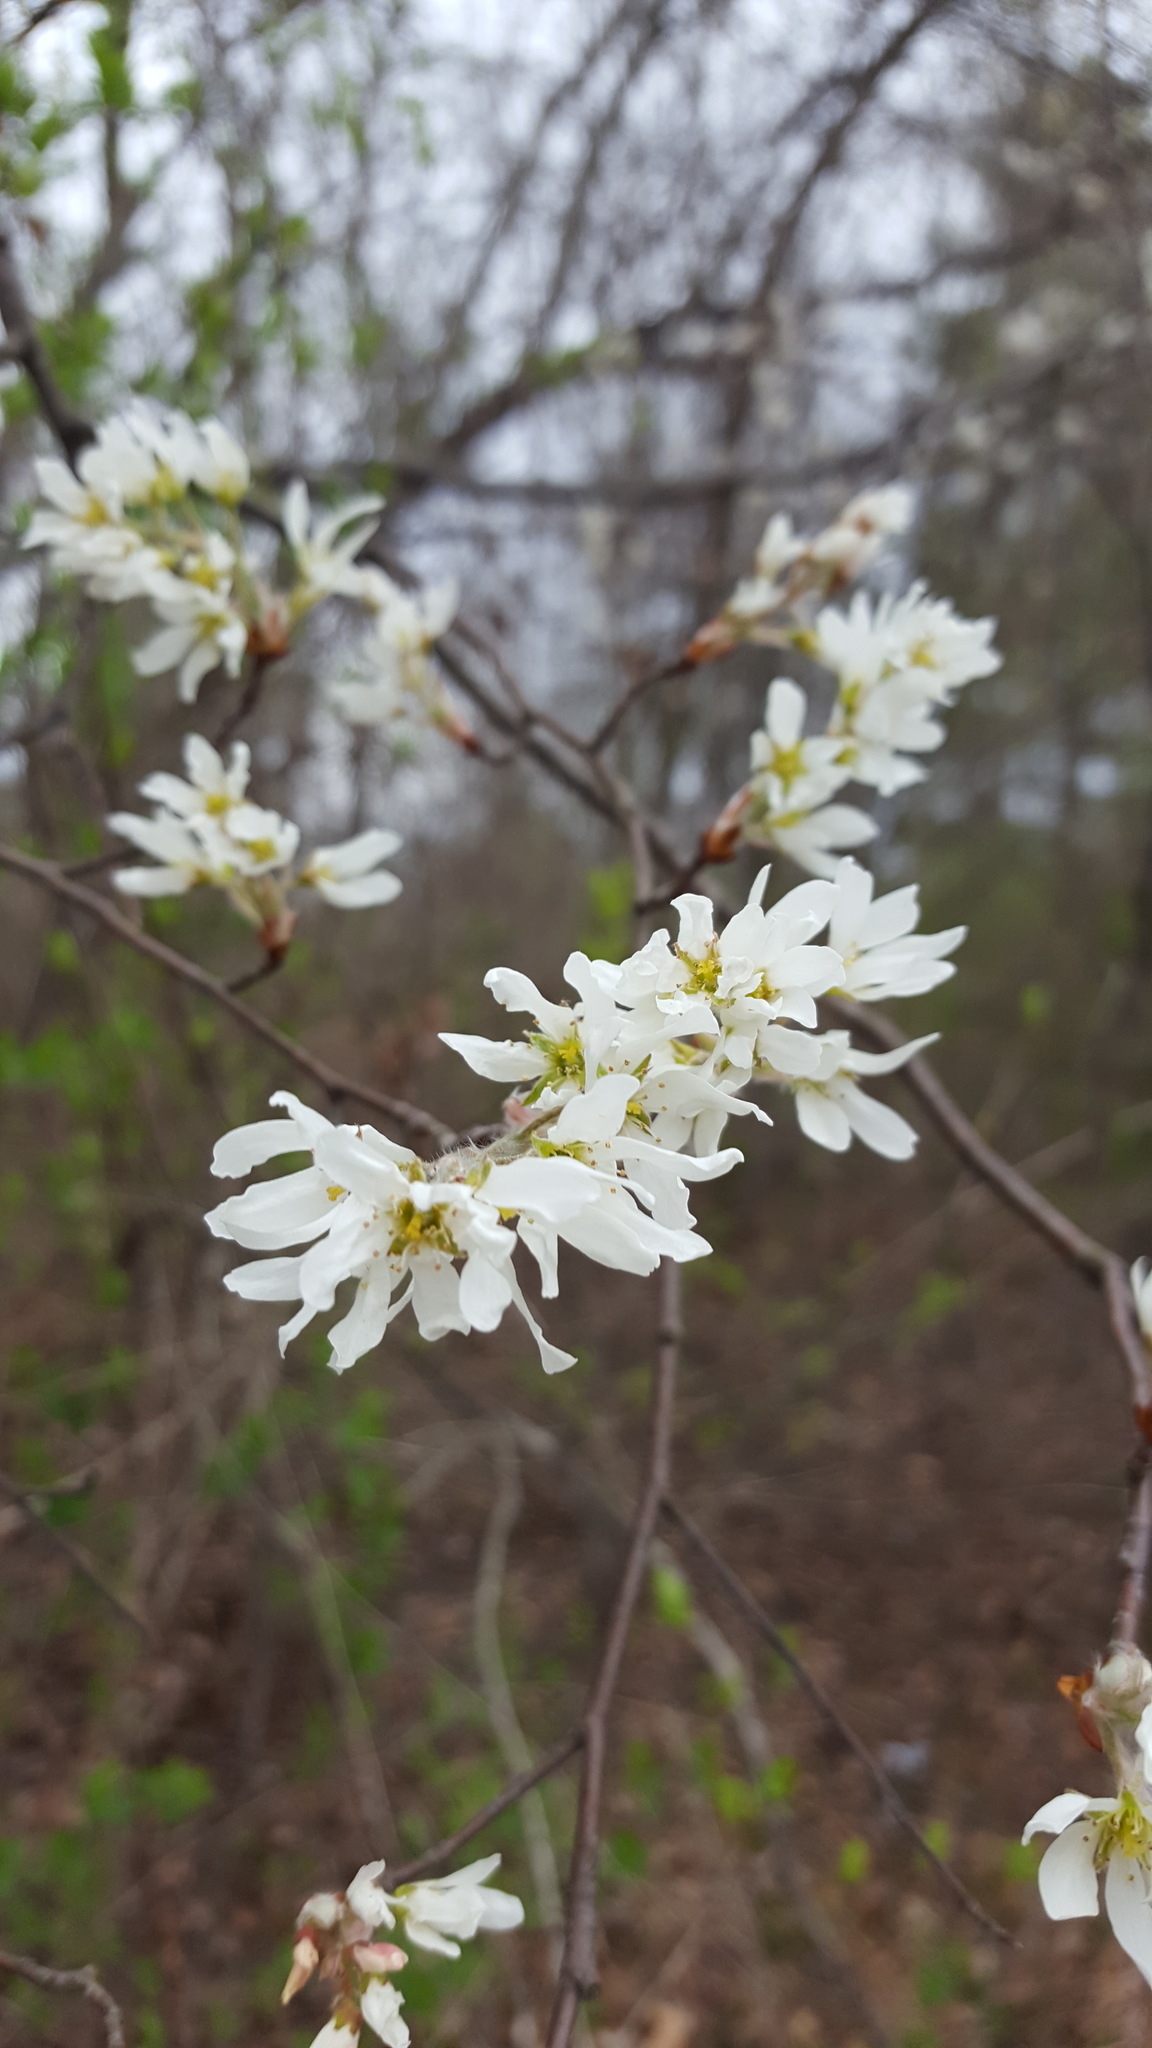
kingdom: Plantae
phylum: Tracheophyta
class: Magnoliopsida
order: Rosales
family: Rosaceae
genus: Amelanchier
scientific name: Amelanchier arborea
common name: Downy serviceberry
